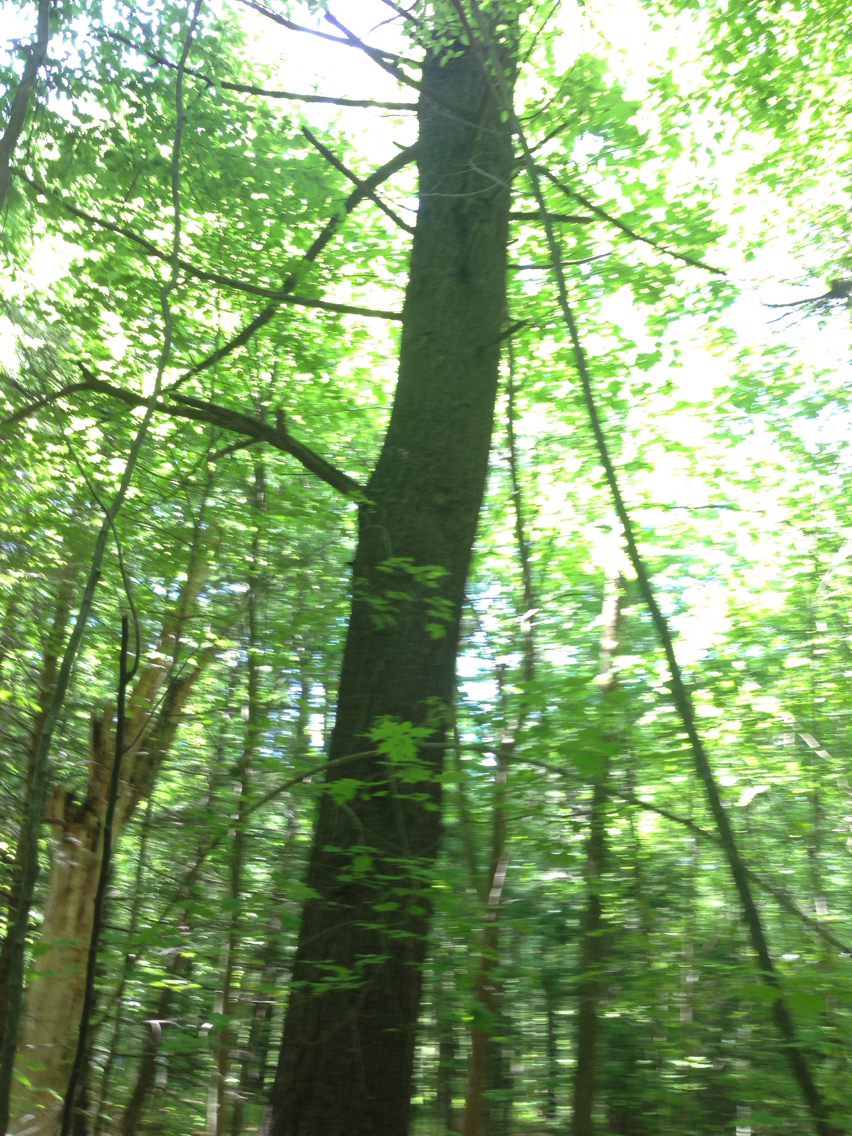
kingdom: Plantae
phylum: Tracheophyta
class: Pinopsida
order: Pinales
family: Pinaceae
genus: Pinus
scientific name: Pinus strobus
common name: Weymouth pine
